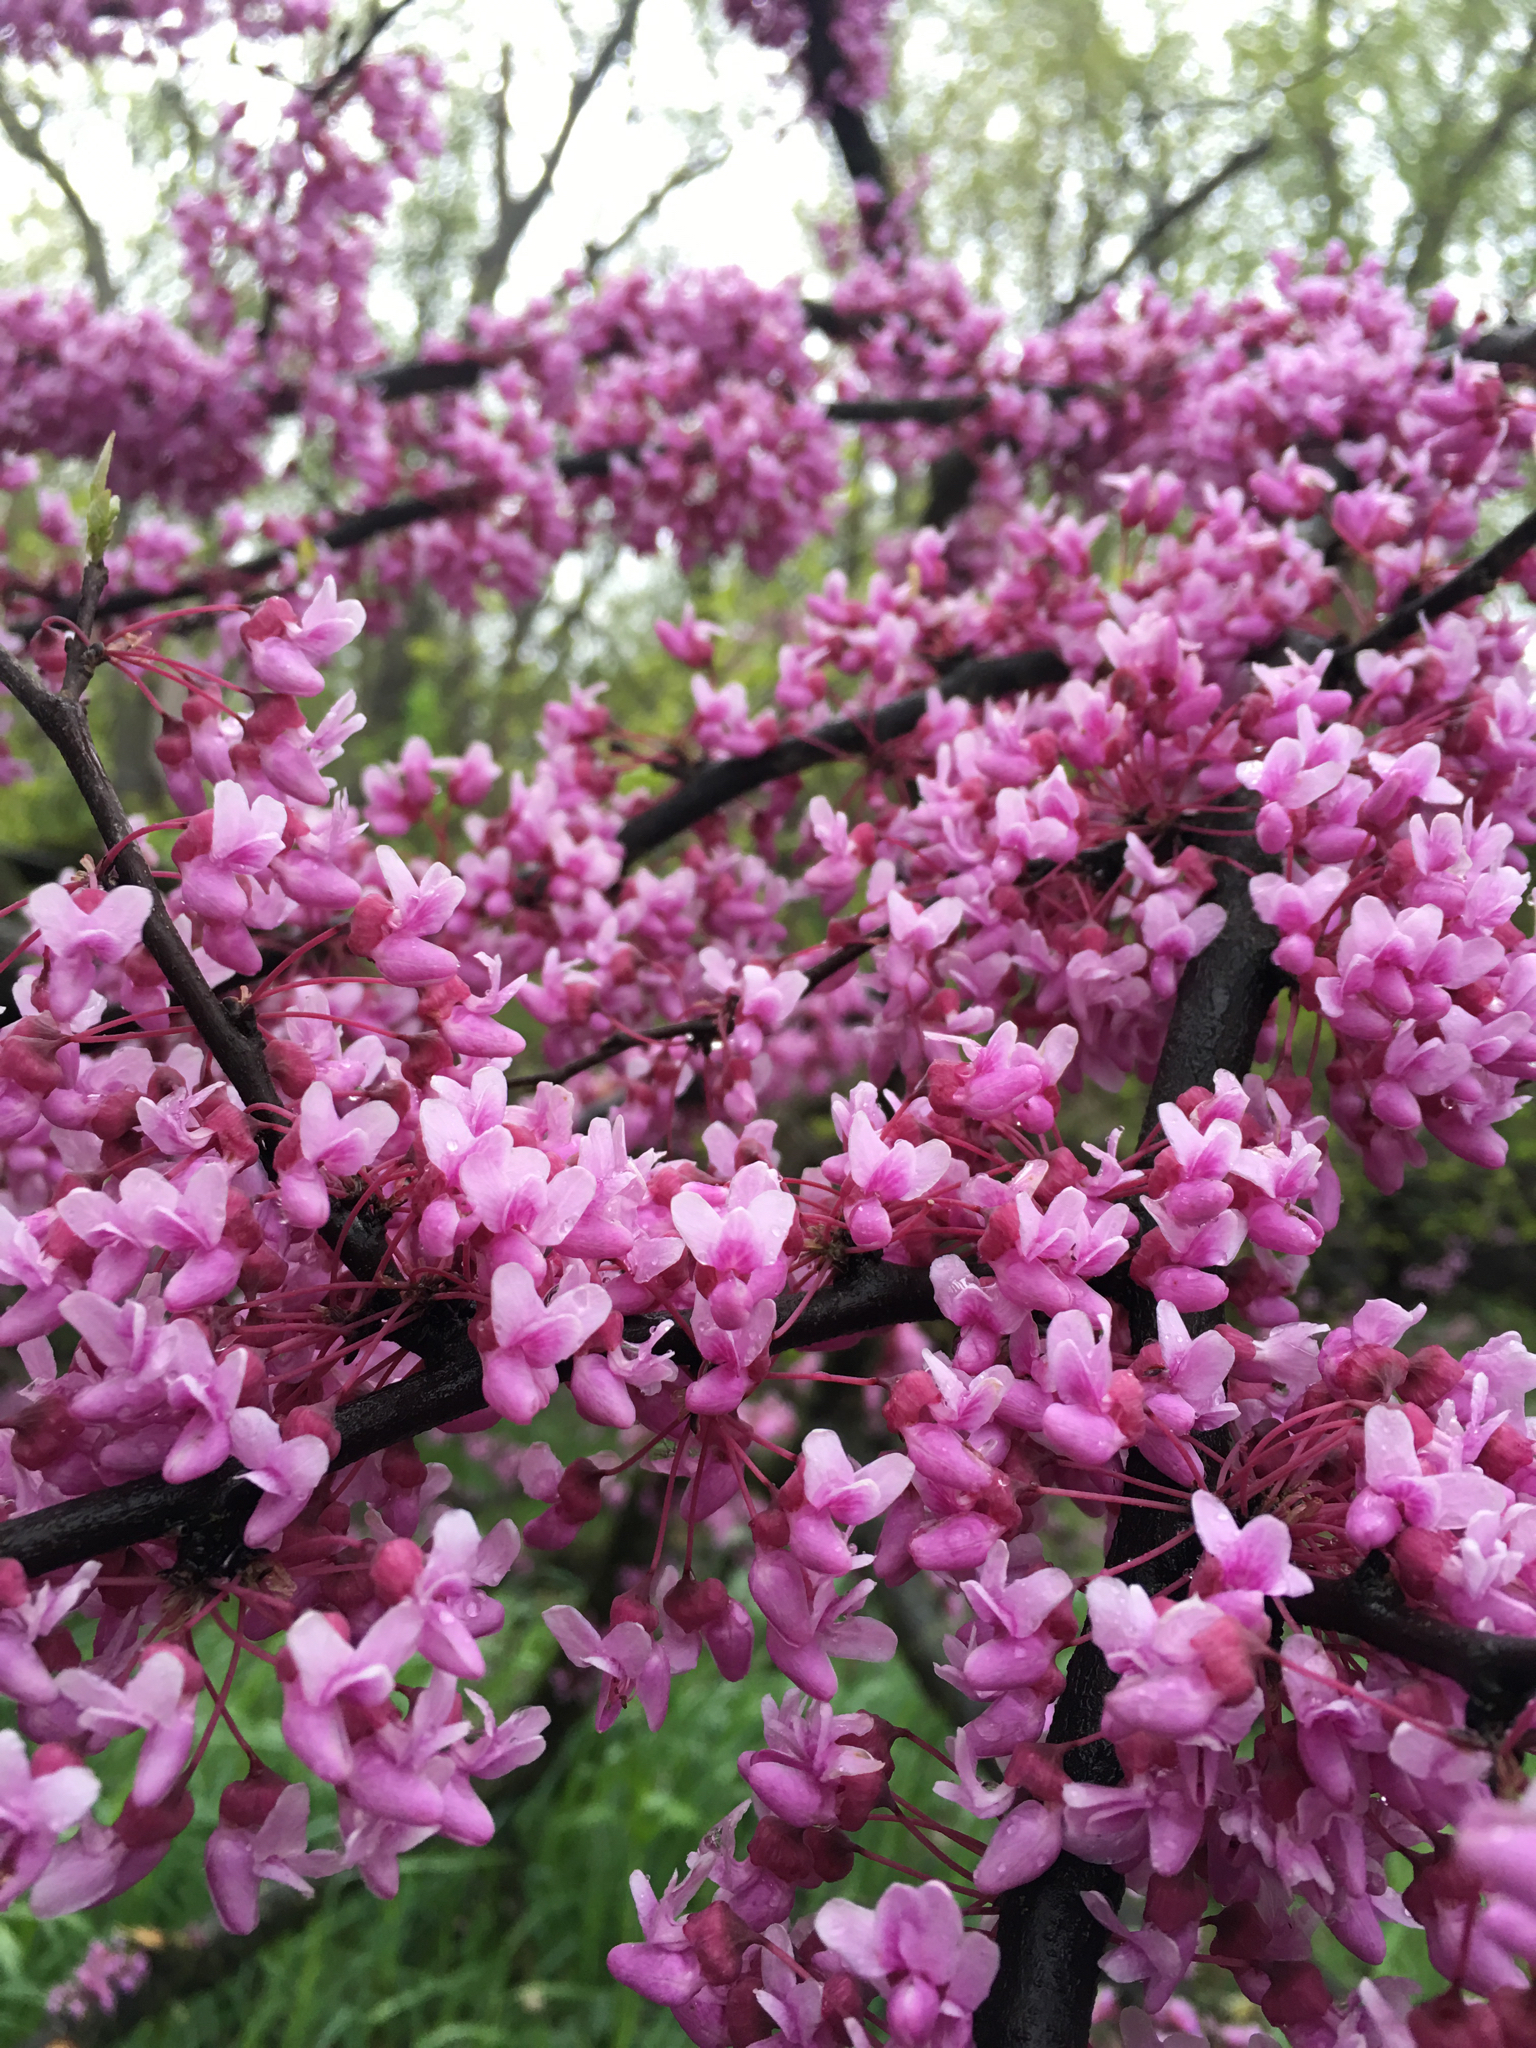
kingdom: Plantae
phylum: Tracheophyta
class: Magnoliopsida
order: Fabales
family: Fabaceae
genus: Cercis
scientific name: Cercis canadensis
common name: Eastern redbud
